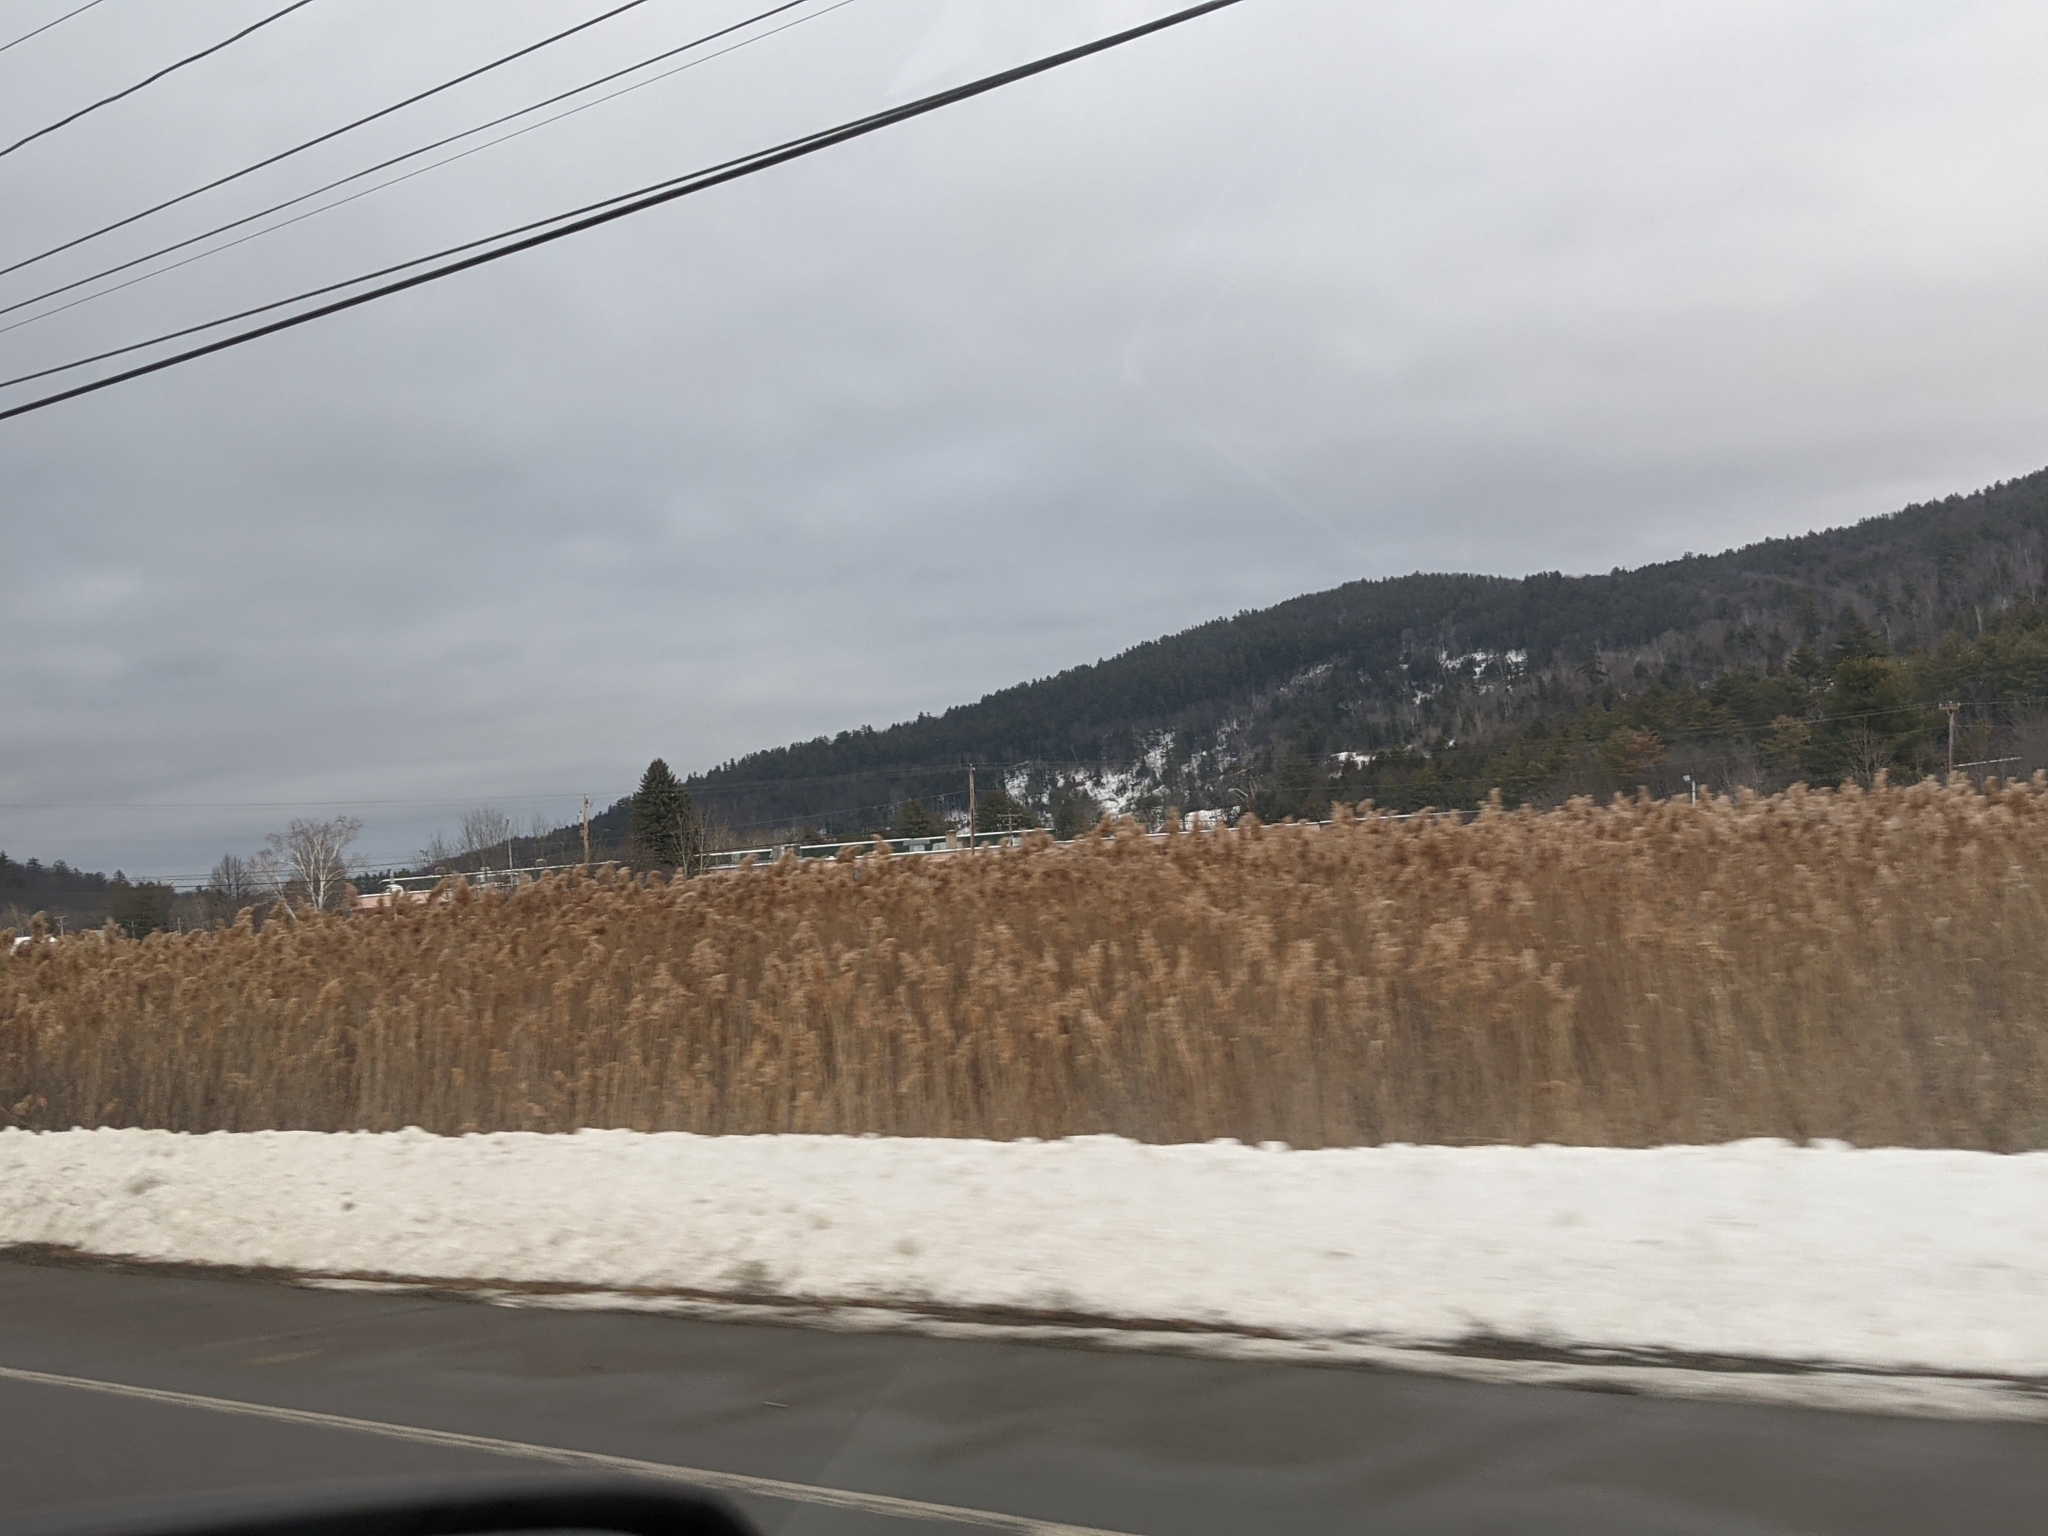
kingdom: Plantae
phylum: Tracheophyta
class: Liliopsida
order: Poales
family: Poaceae
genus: Phragmites
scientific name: Phragmites australis
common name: Common reed
